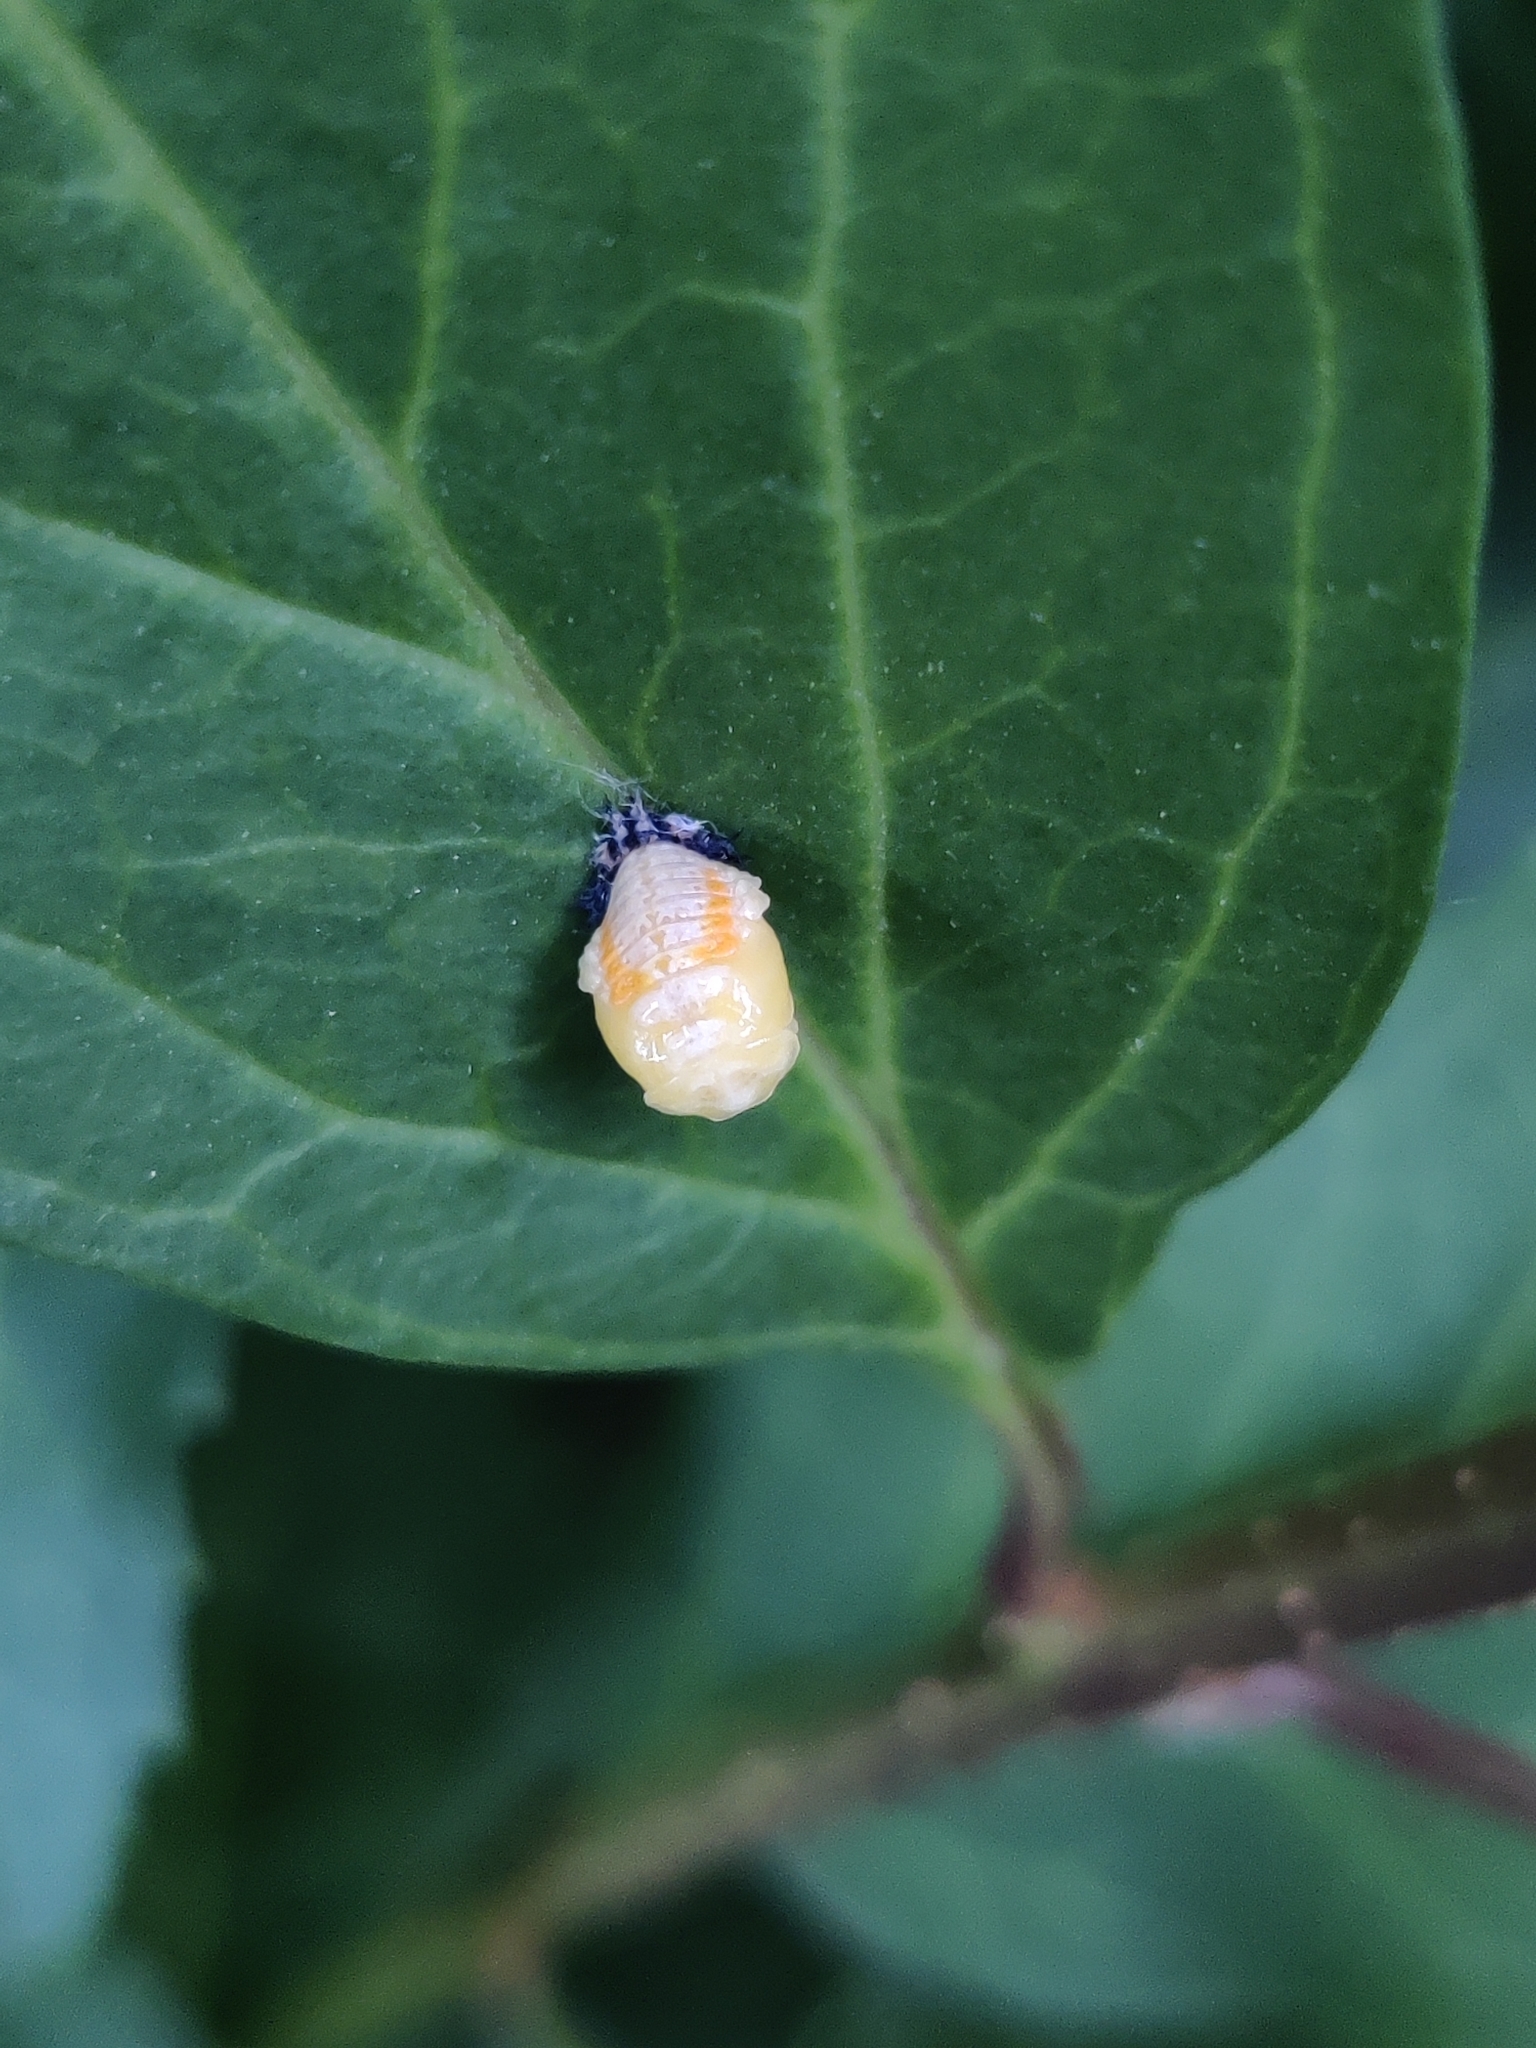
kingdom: Animalia
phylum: Arthropoda
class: Insecta
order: Coleoptera
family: Coccinellidae
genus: Harmonia
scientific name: Harmonia axyridis
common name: Harlequin ladybird
